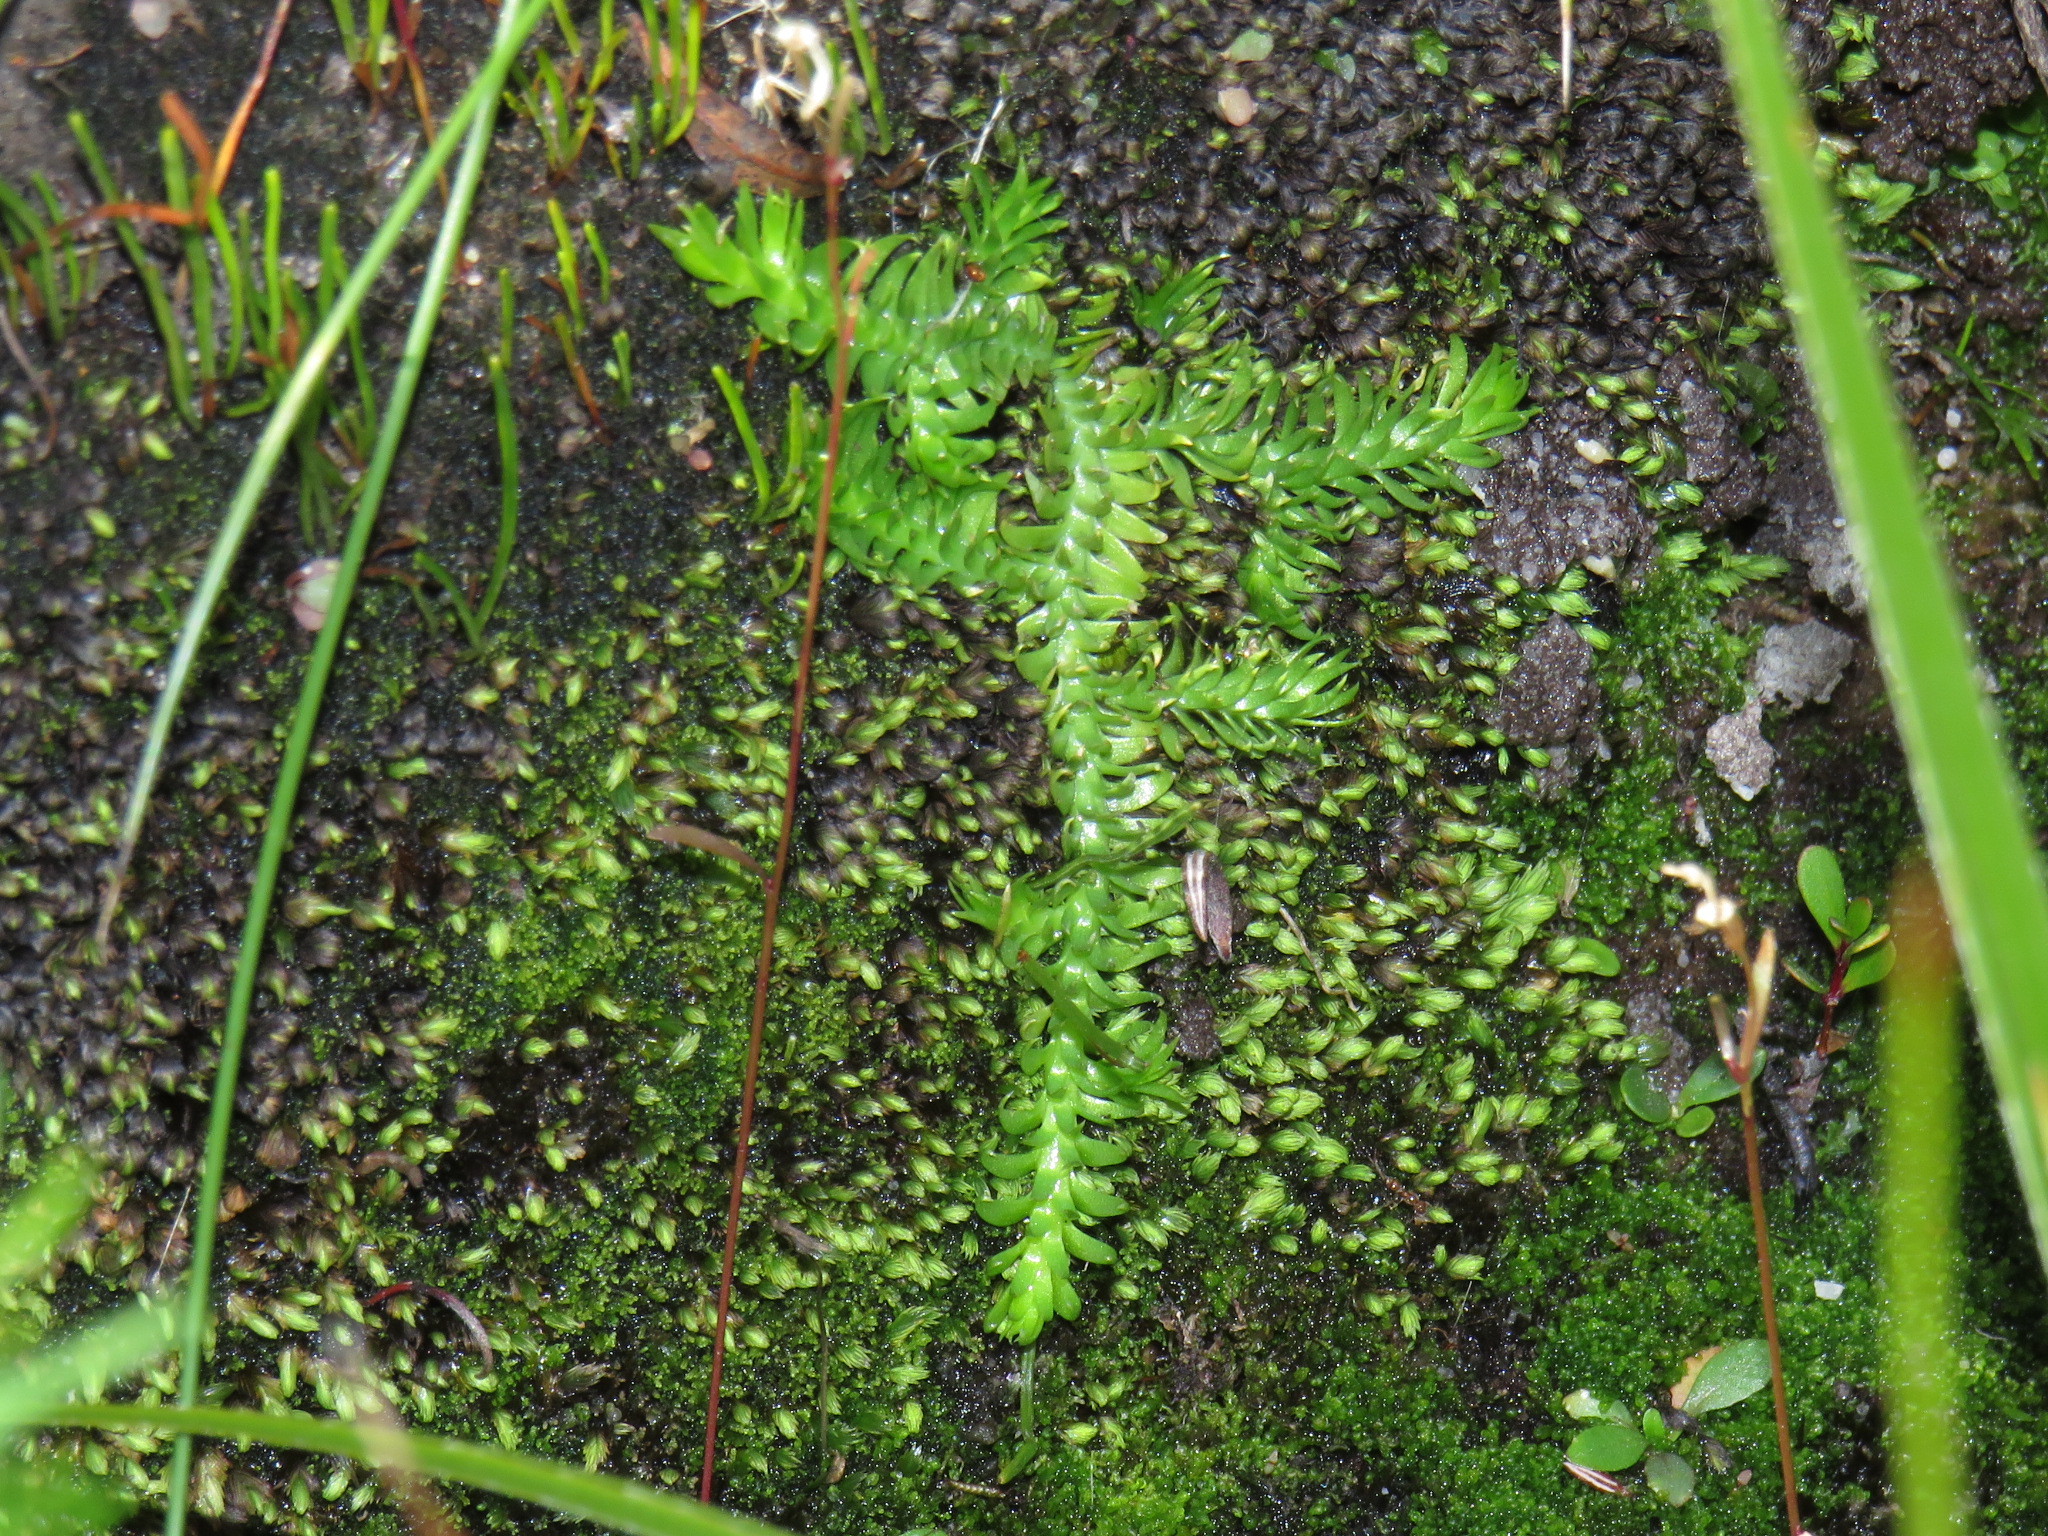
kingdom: Plantae
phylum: Tracheophyta
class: Lycopodiopsida
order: Lycopodiales
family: Lycopodiaceae
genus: Pseudolycopodiella
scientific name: Pseudolycopodiella caroliniana
